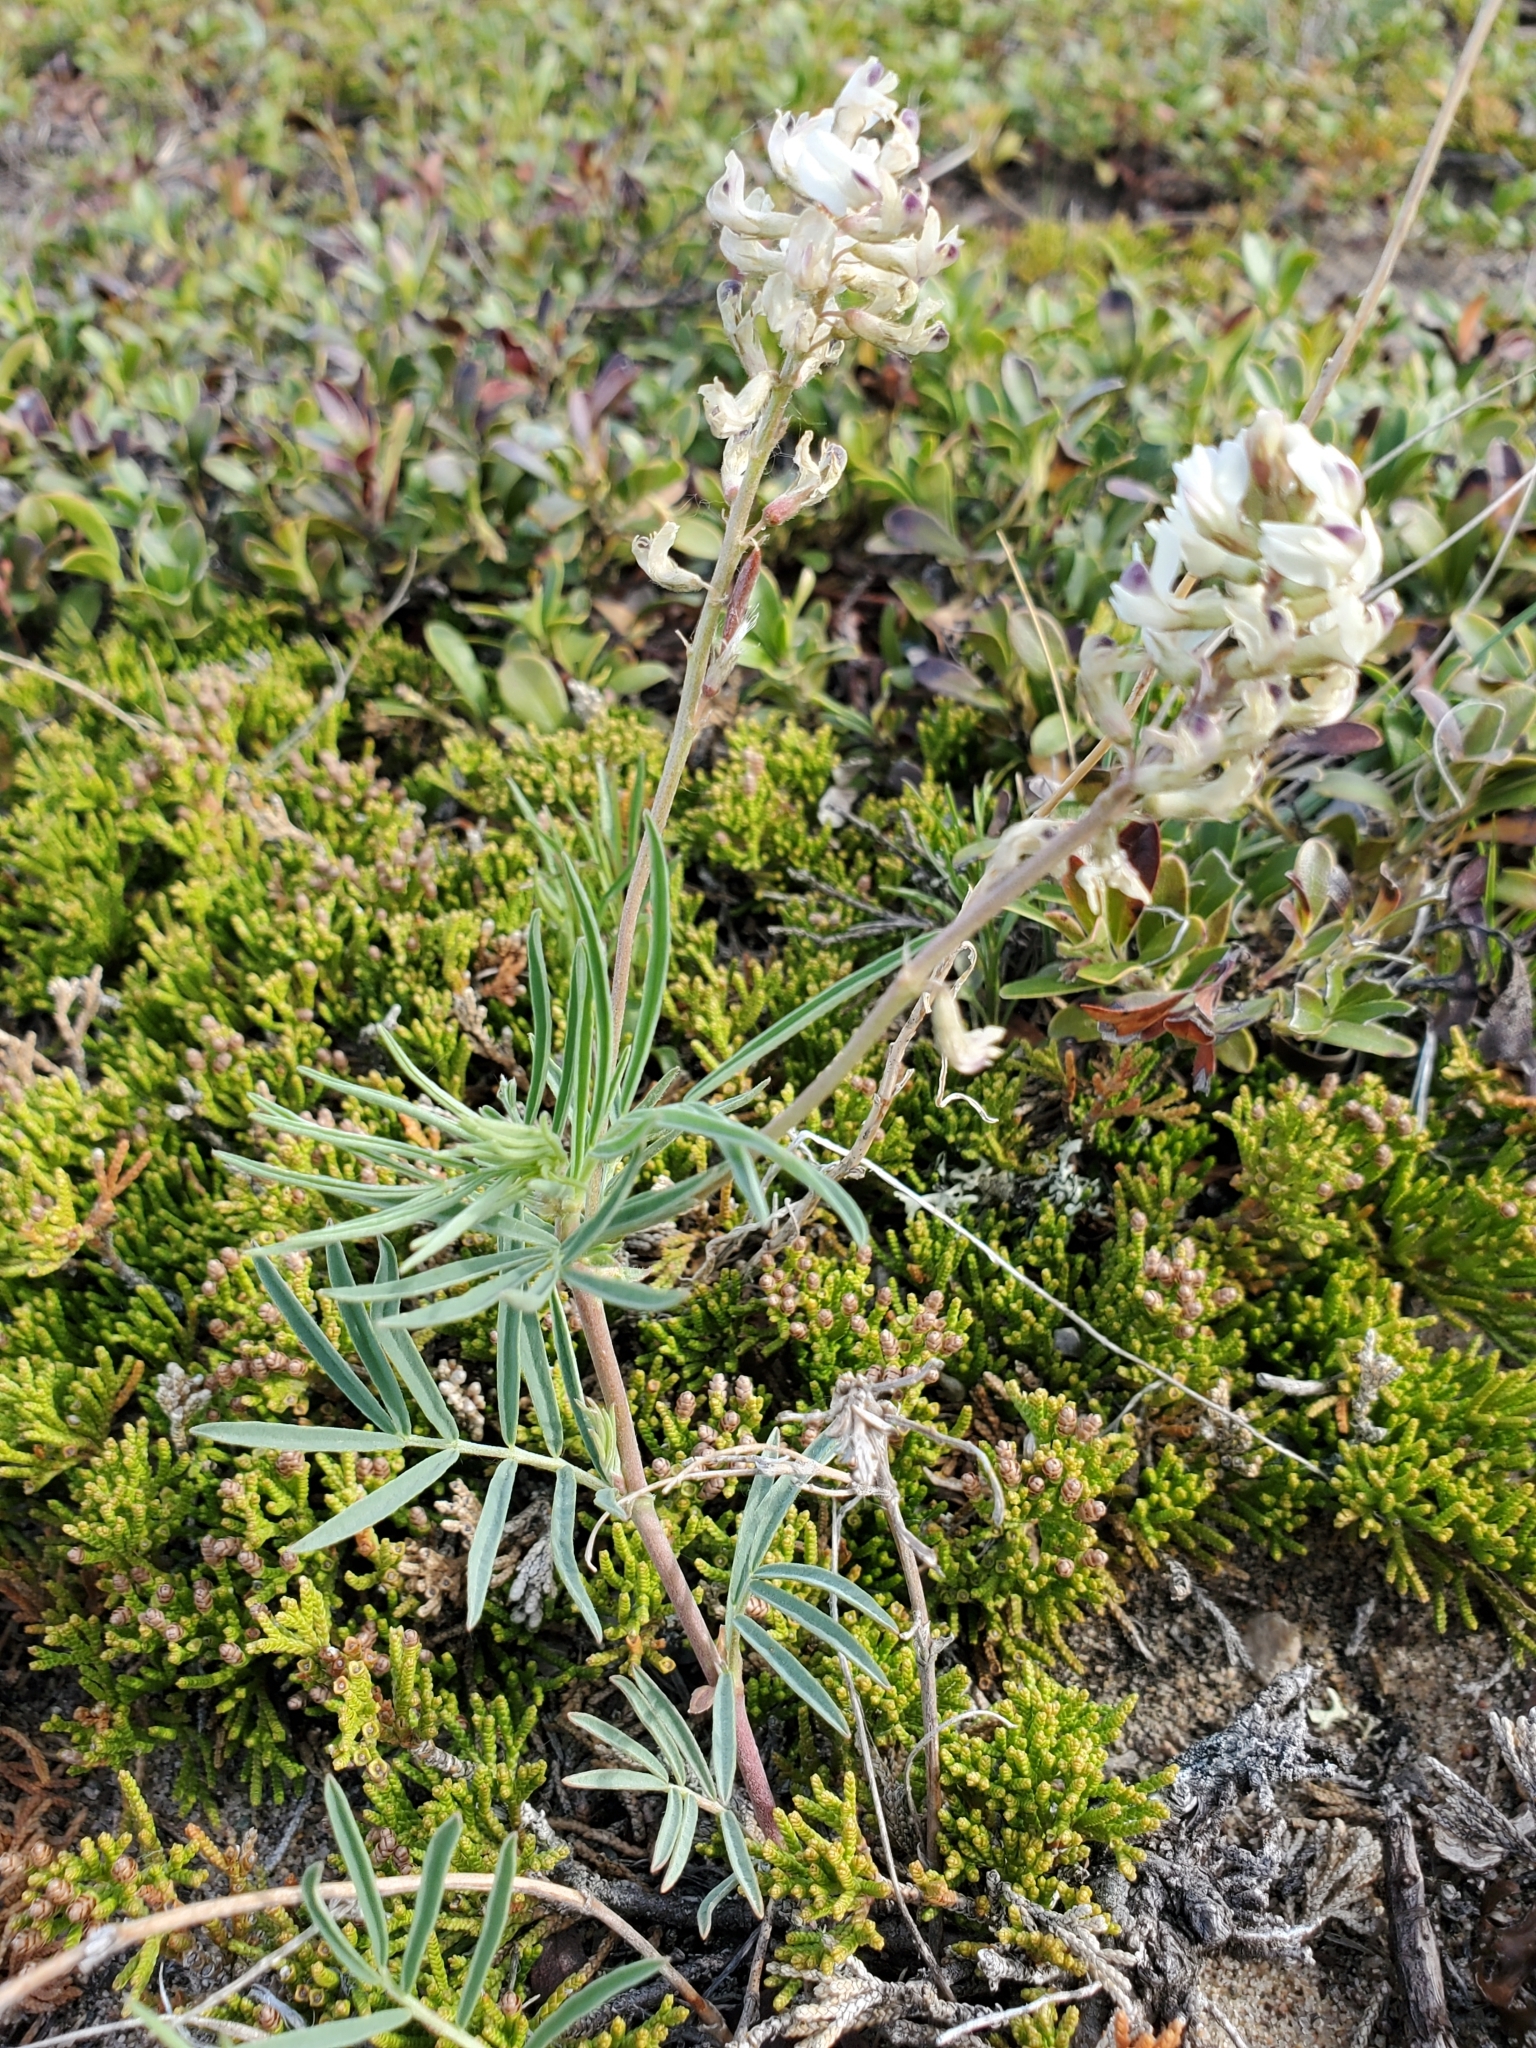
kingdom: Plantae
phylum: Tracheophyta
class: Magnoliopsida
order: Fabales
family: Fabaceae
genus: Astragalus
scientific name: Astragalus australis
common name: Indian milk-vetch
